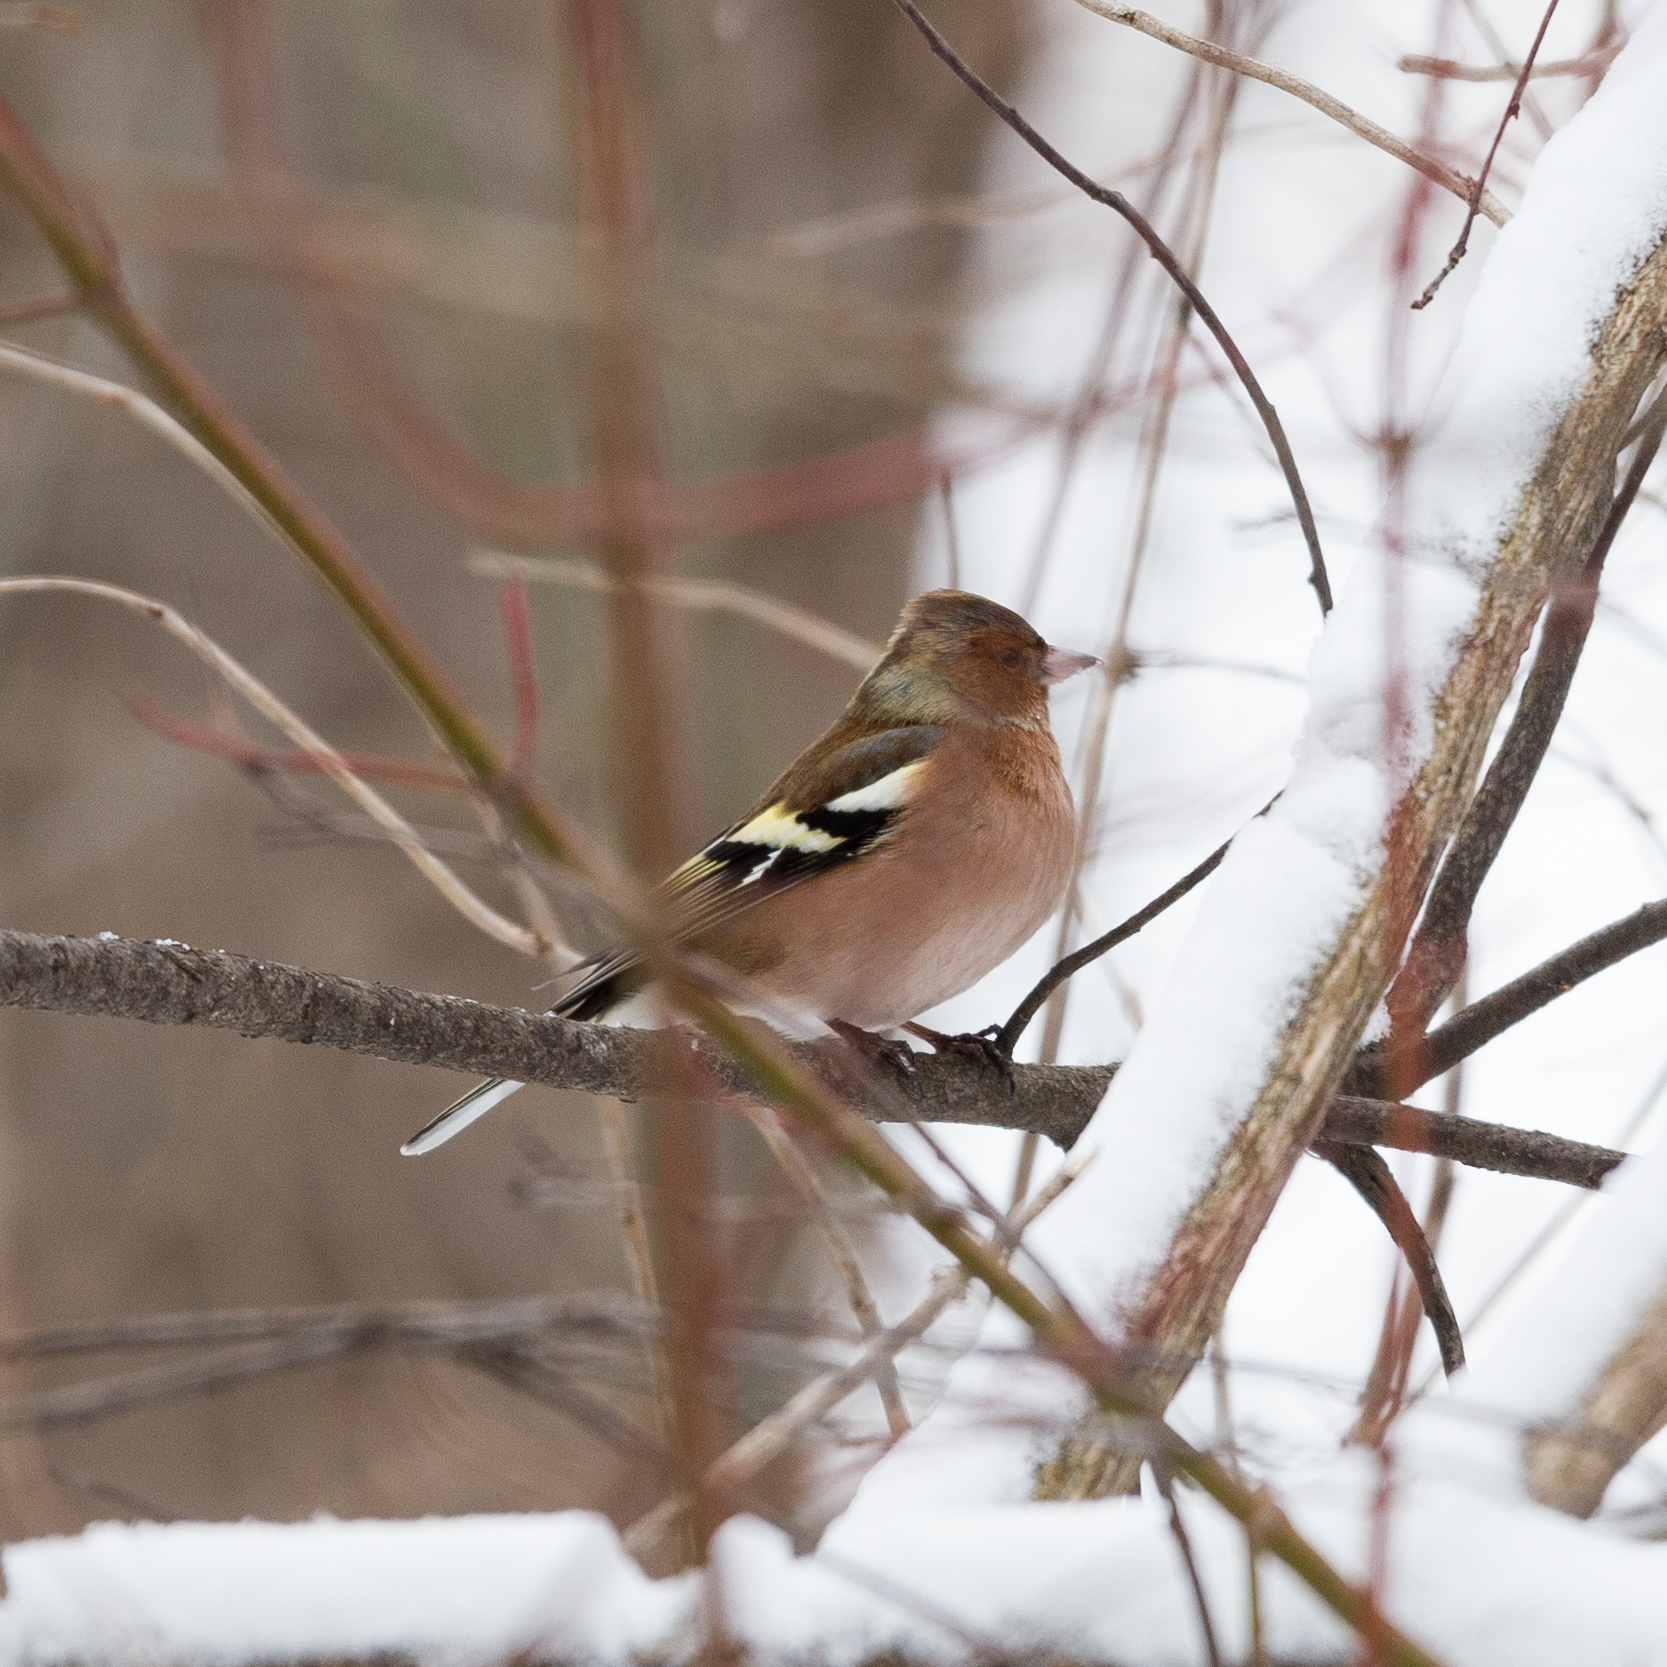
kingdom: Animalia
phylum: Chordata
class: Aves
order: Passeriformes
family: Fringillidae
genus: Fringilla
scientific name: Fringilla coelebs
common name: Common chaffinch
